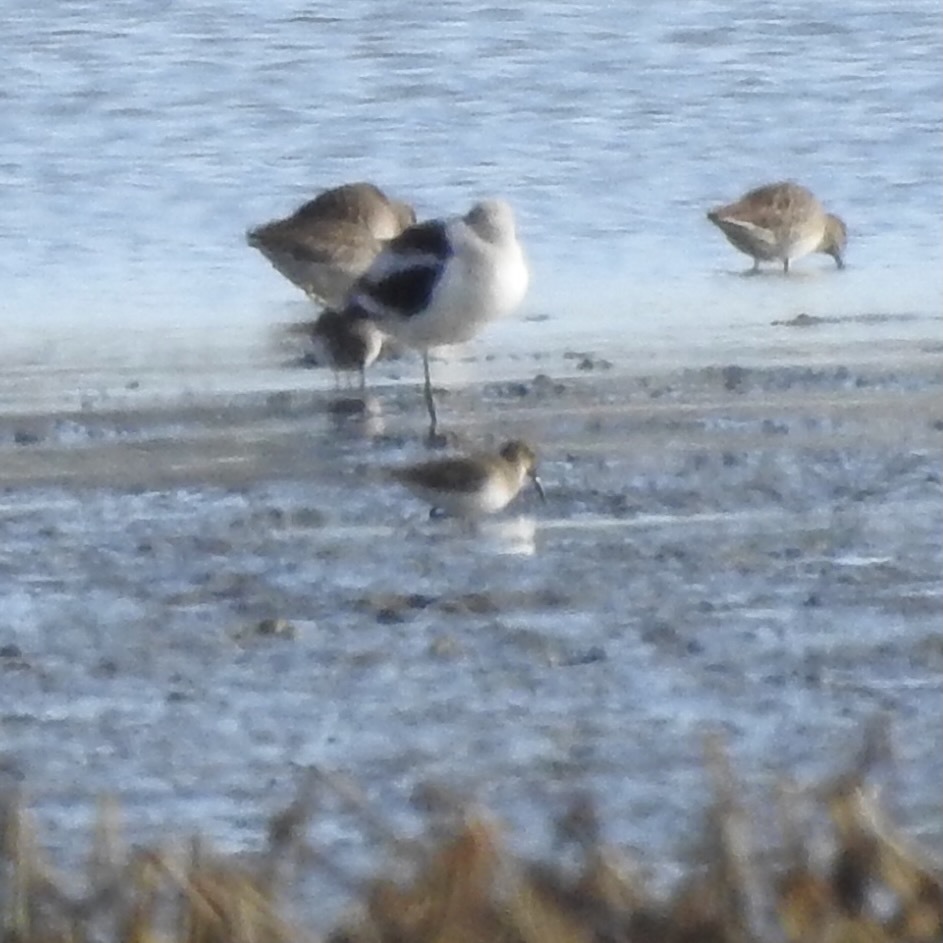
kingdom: Animalia
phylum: Chordata
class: Aves
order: Charadriiformes
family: Scolopacidae
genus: Calidris
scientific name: Calidris alpina
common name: Dunlin
